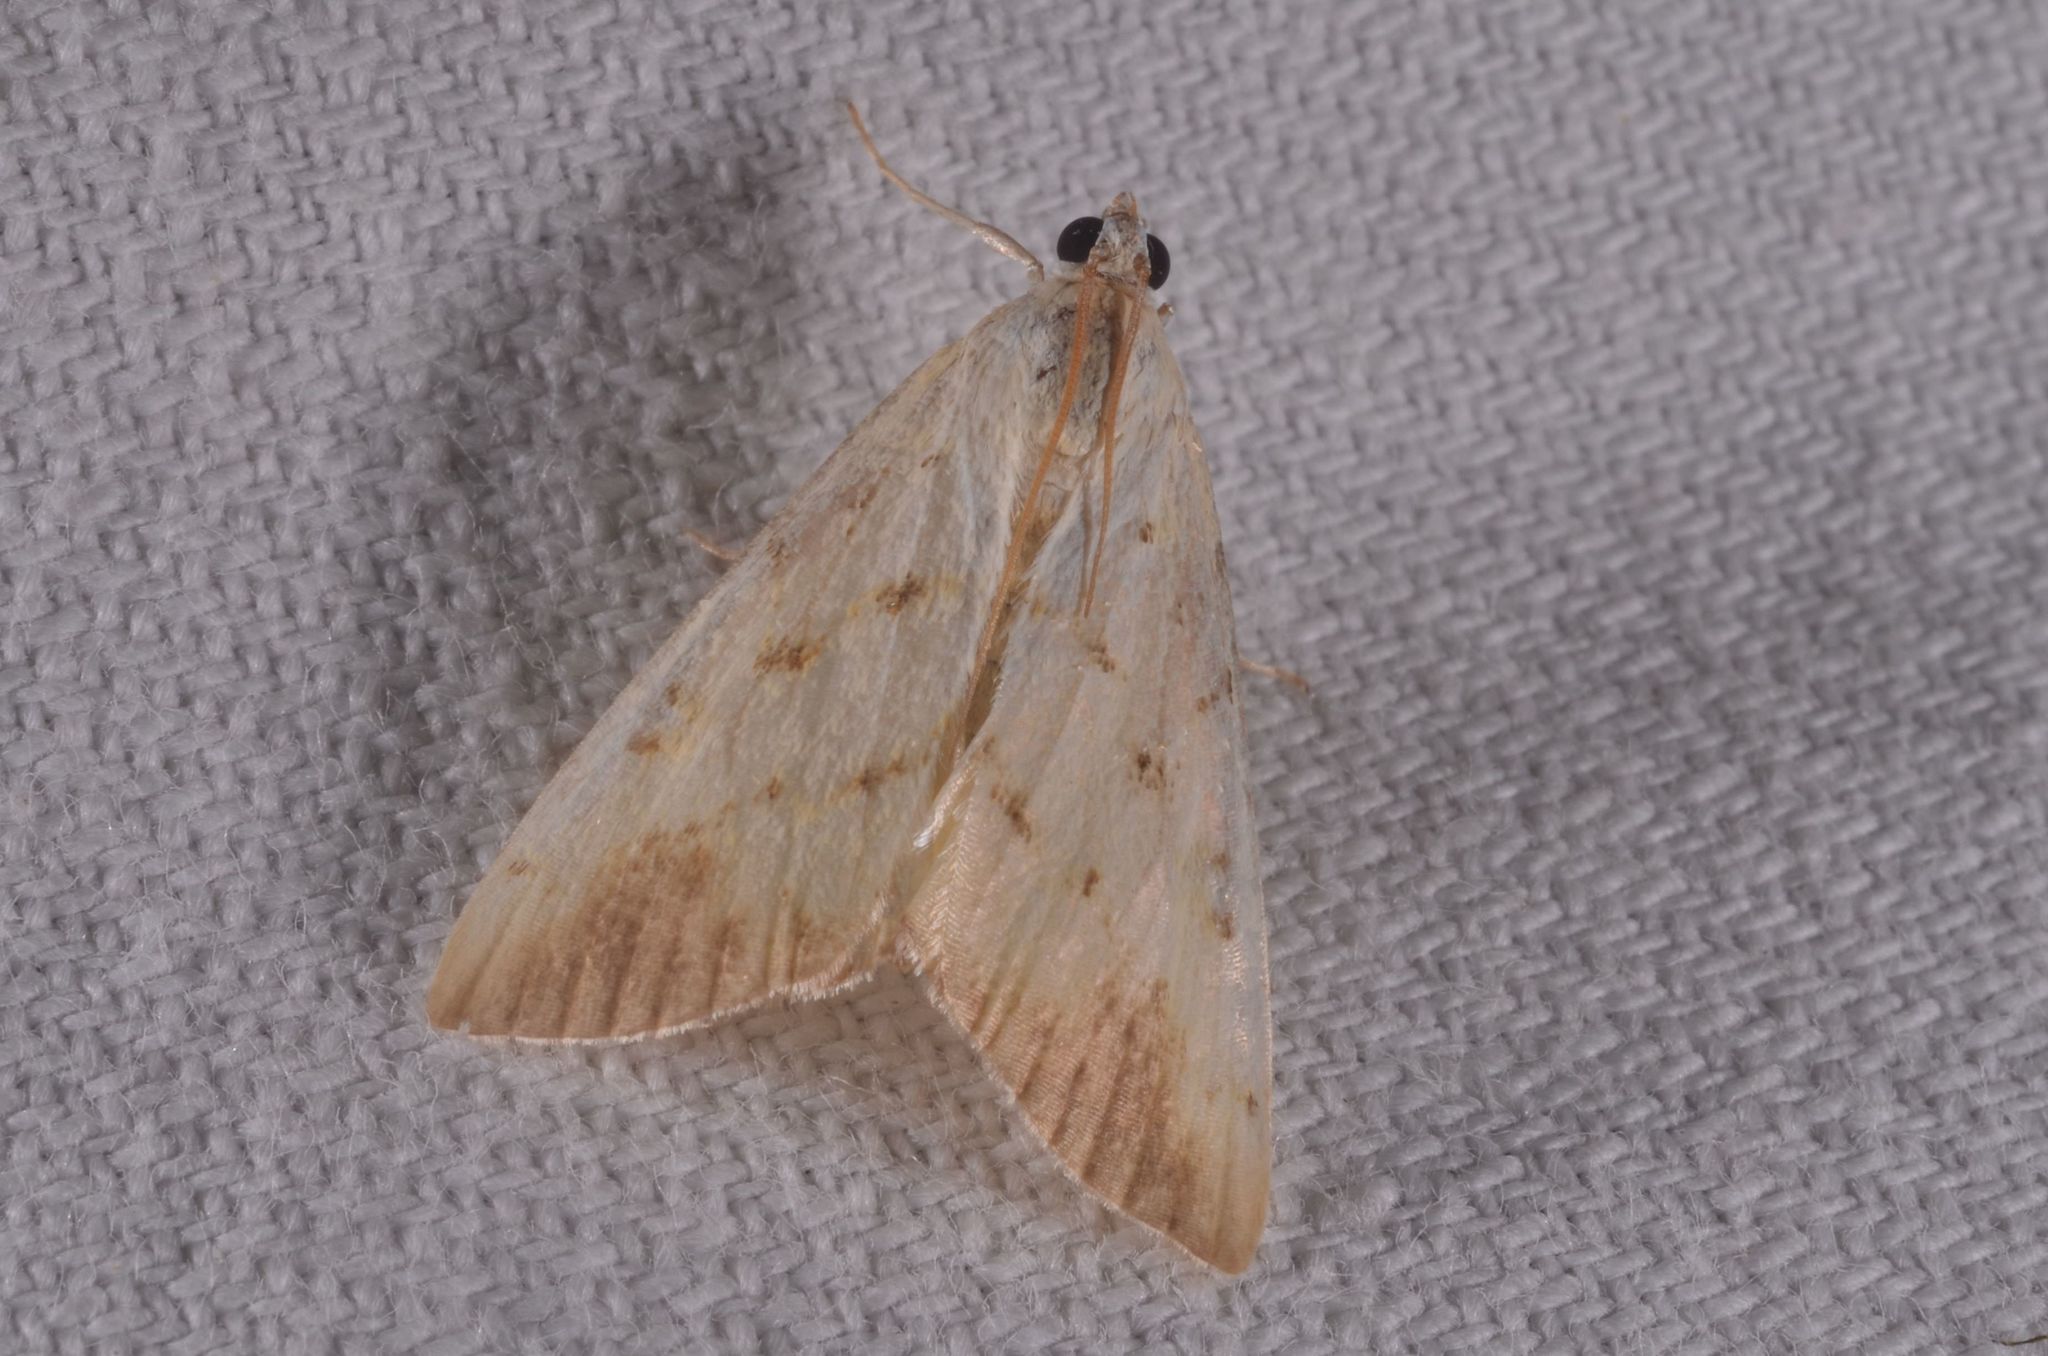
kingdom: Animalia
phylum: Arthropoda
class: Insecta
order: Lepidoptera
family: Crambidae
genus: Evergestis
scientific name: Evergestis extimalis
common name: Marbled yellow pearl
